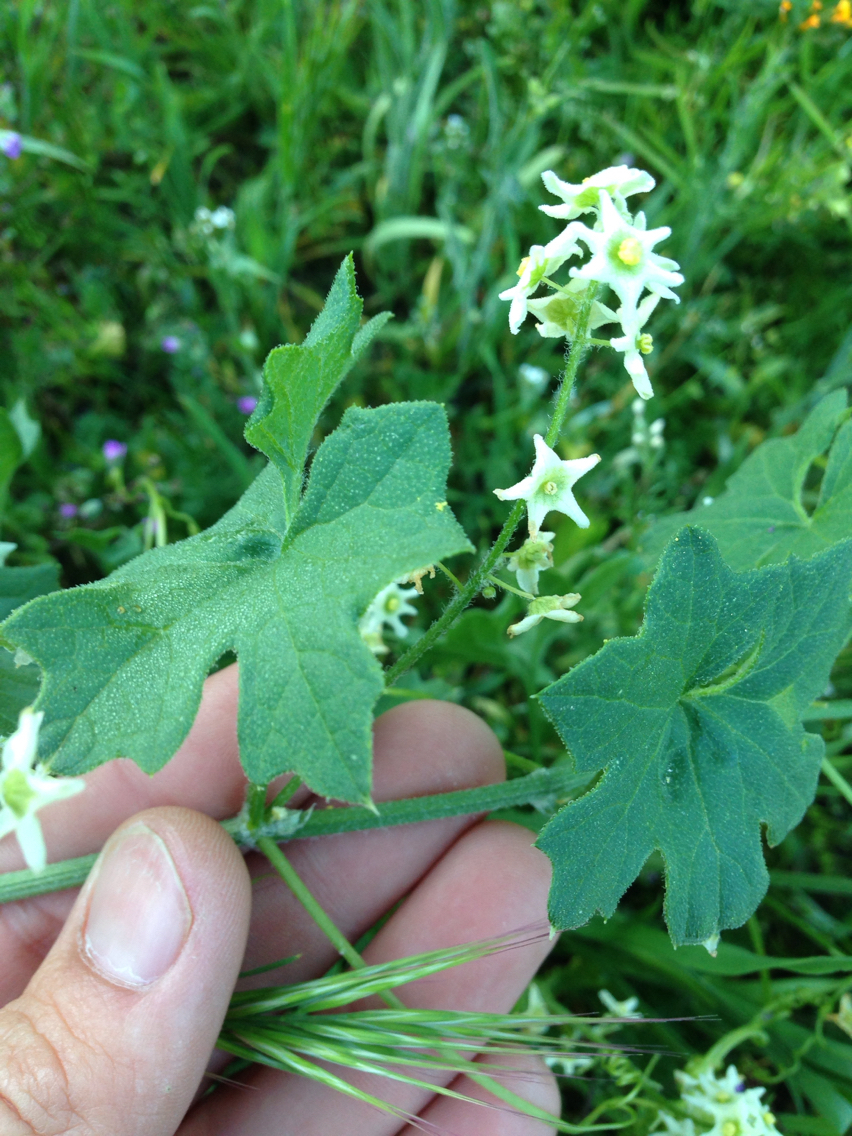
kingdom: Plantae
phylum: Tracheophyta
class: Magnoliopsida
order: Cucurbitales
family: Cucurbitaceae
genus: Marah
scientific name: Marah fabacea
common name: California manroot
